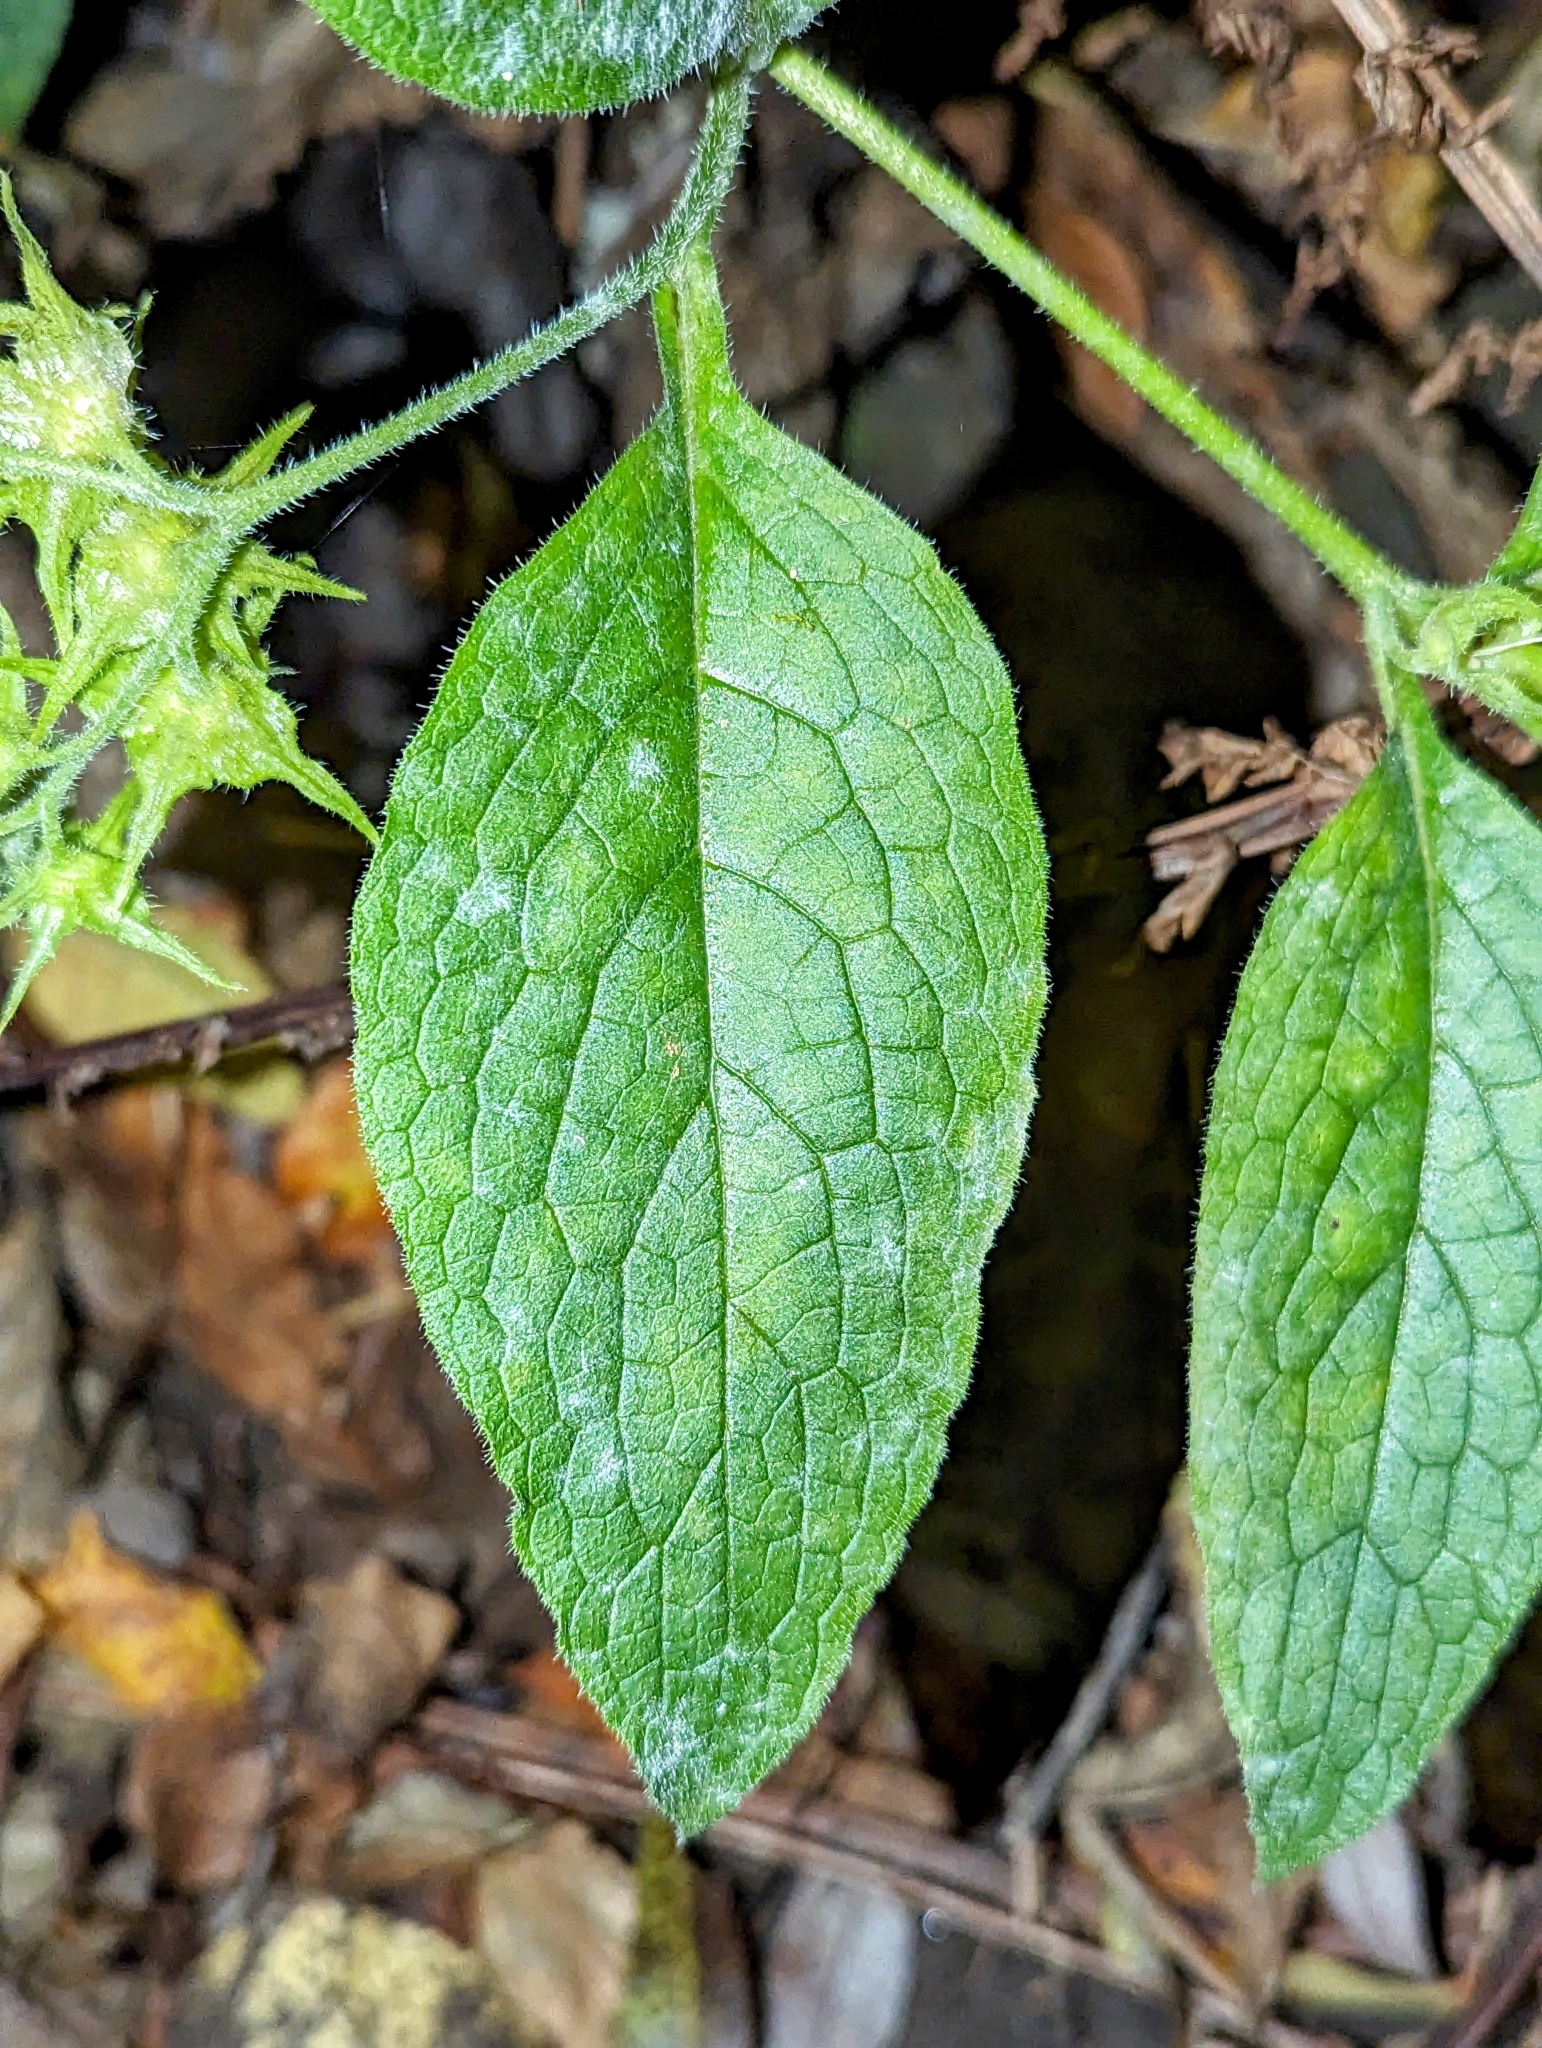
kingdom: Plantae
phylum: Tracheophyta
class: Magnoliopsida
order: Boraginales
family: Boraginaceae
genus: Symphytum
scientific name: Symphytum
